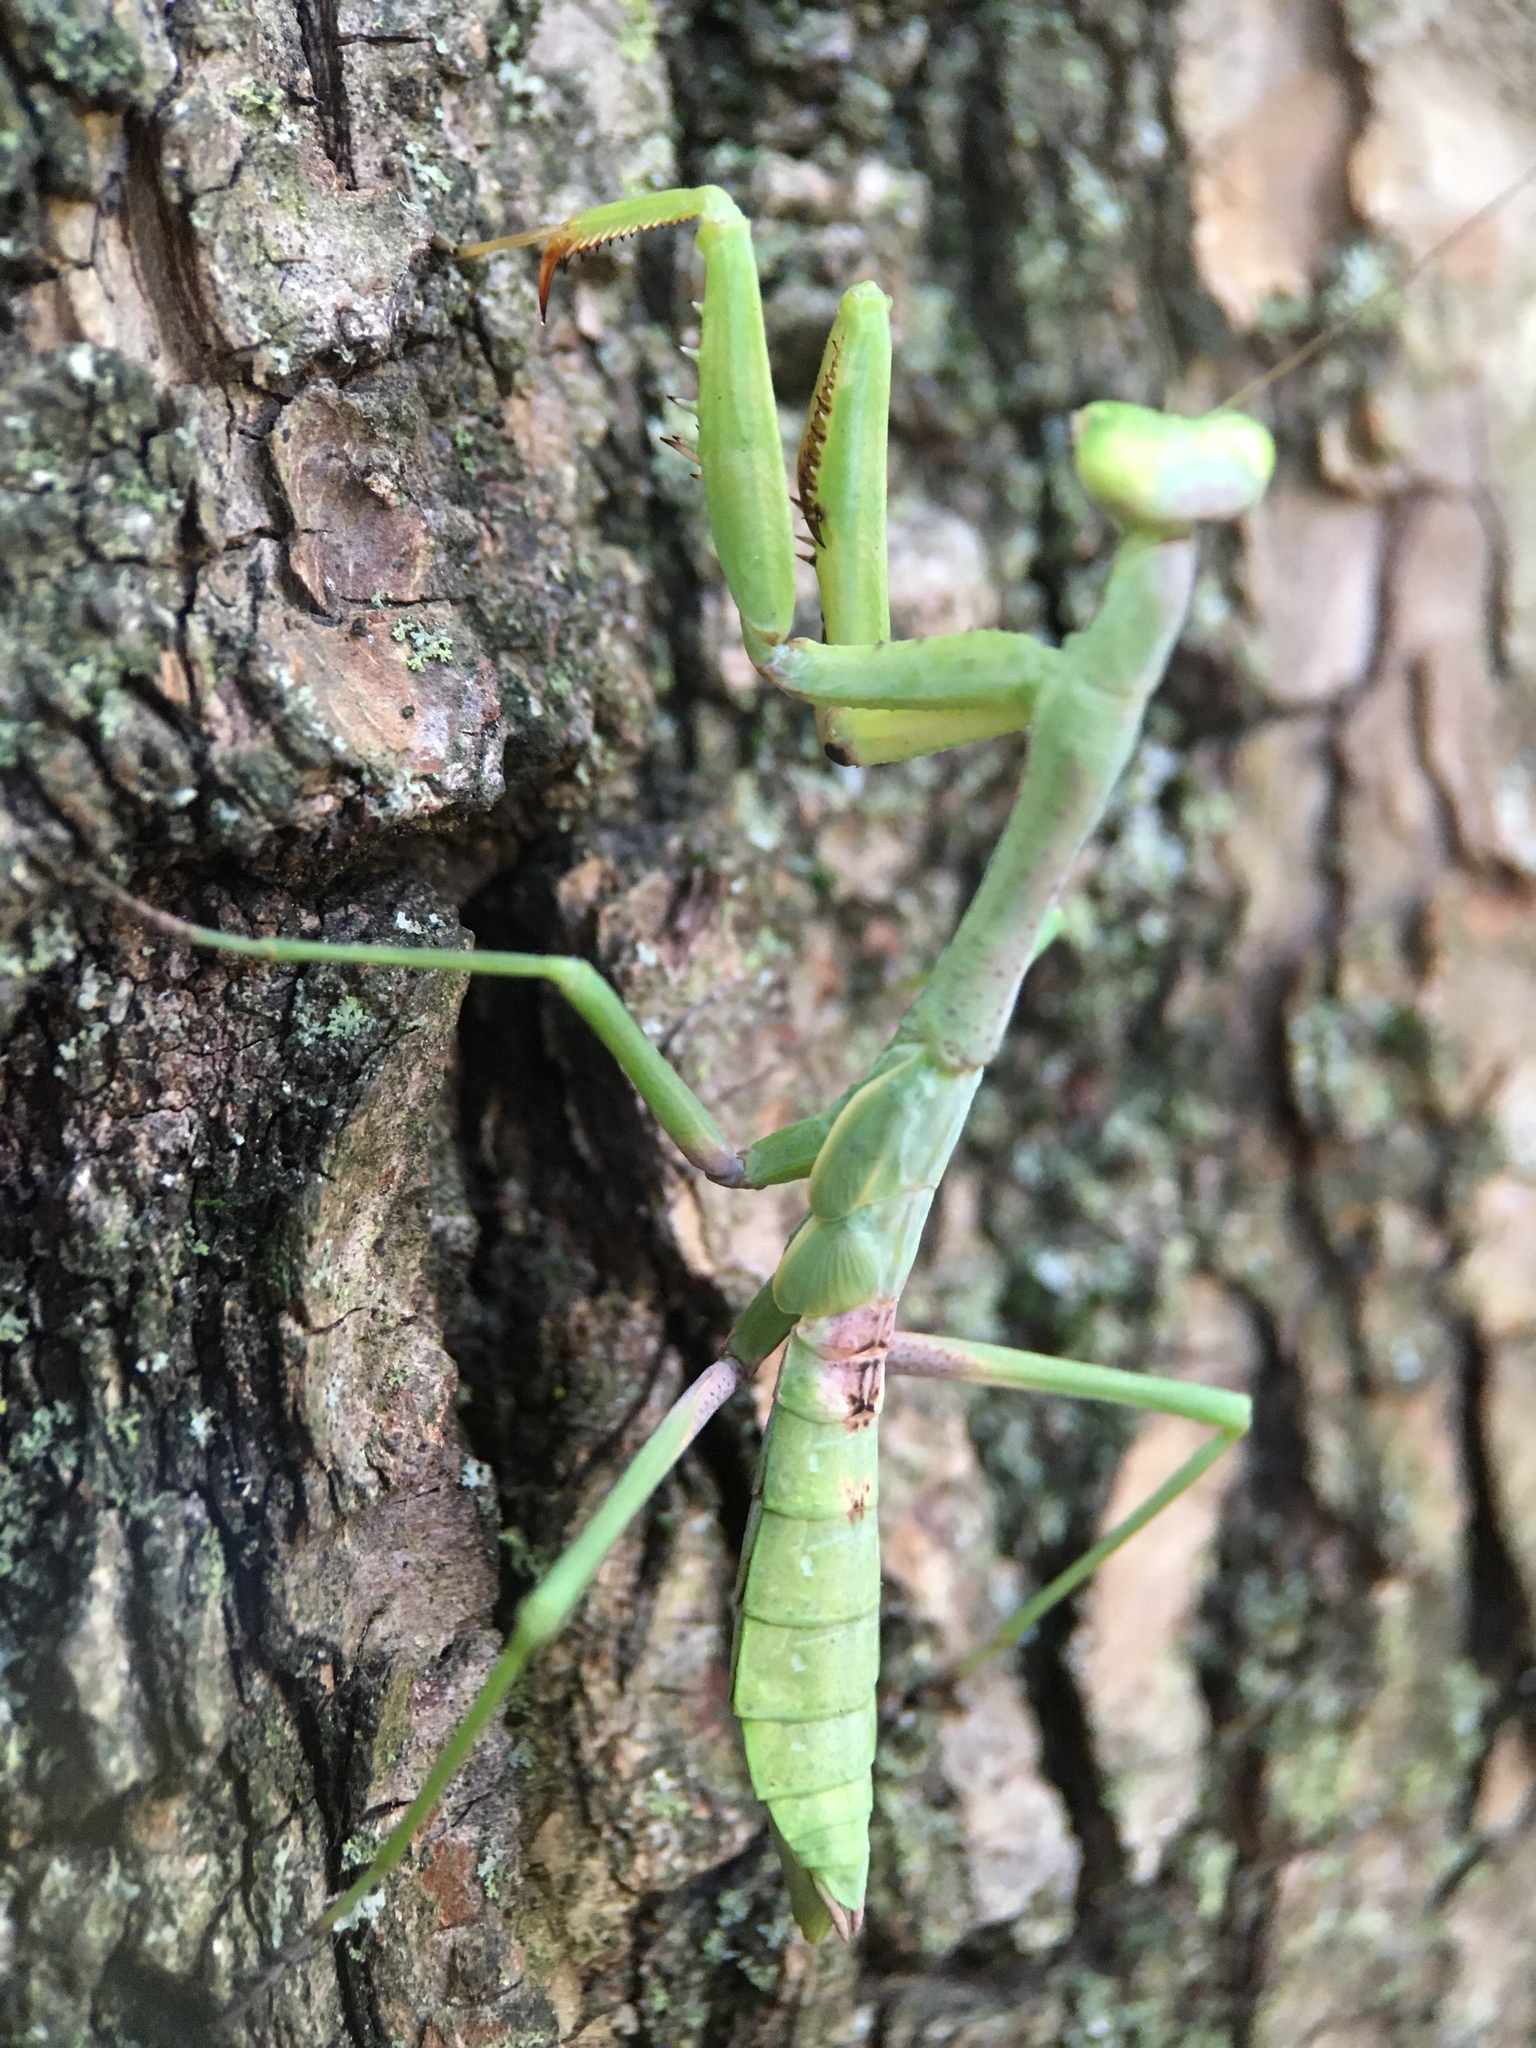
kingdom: Animalia
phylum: Arthropoda
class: Insecta
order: Mantodea
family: Mantidae
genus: Stagmomantis
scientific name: Stagmomantis carolina
